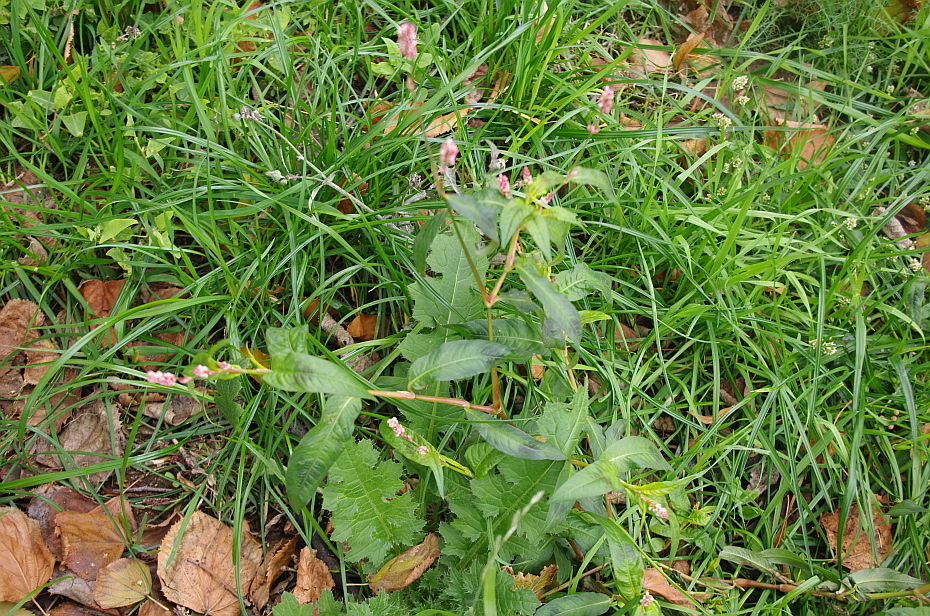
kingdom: Plantae
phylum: Tracheophyta
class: Magnoliopsida
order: Caryophyllales
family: Polygonaceae
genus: Persicaria
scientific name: Persicaria maculosa
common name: Redshank
